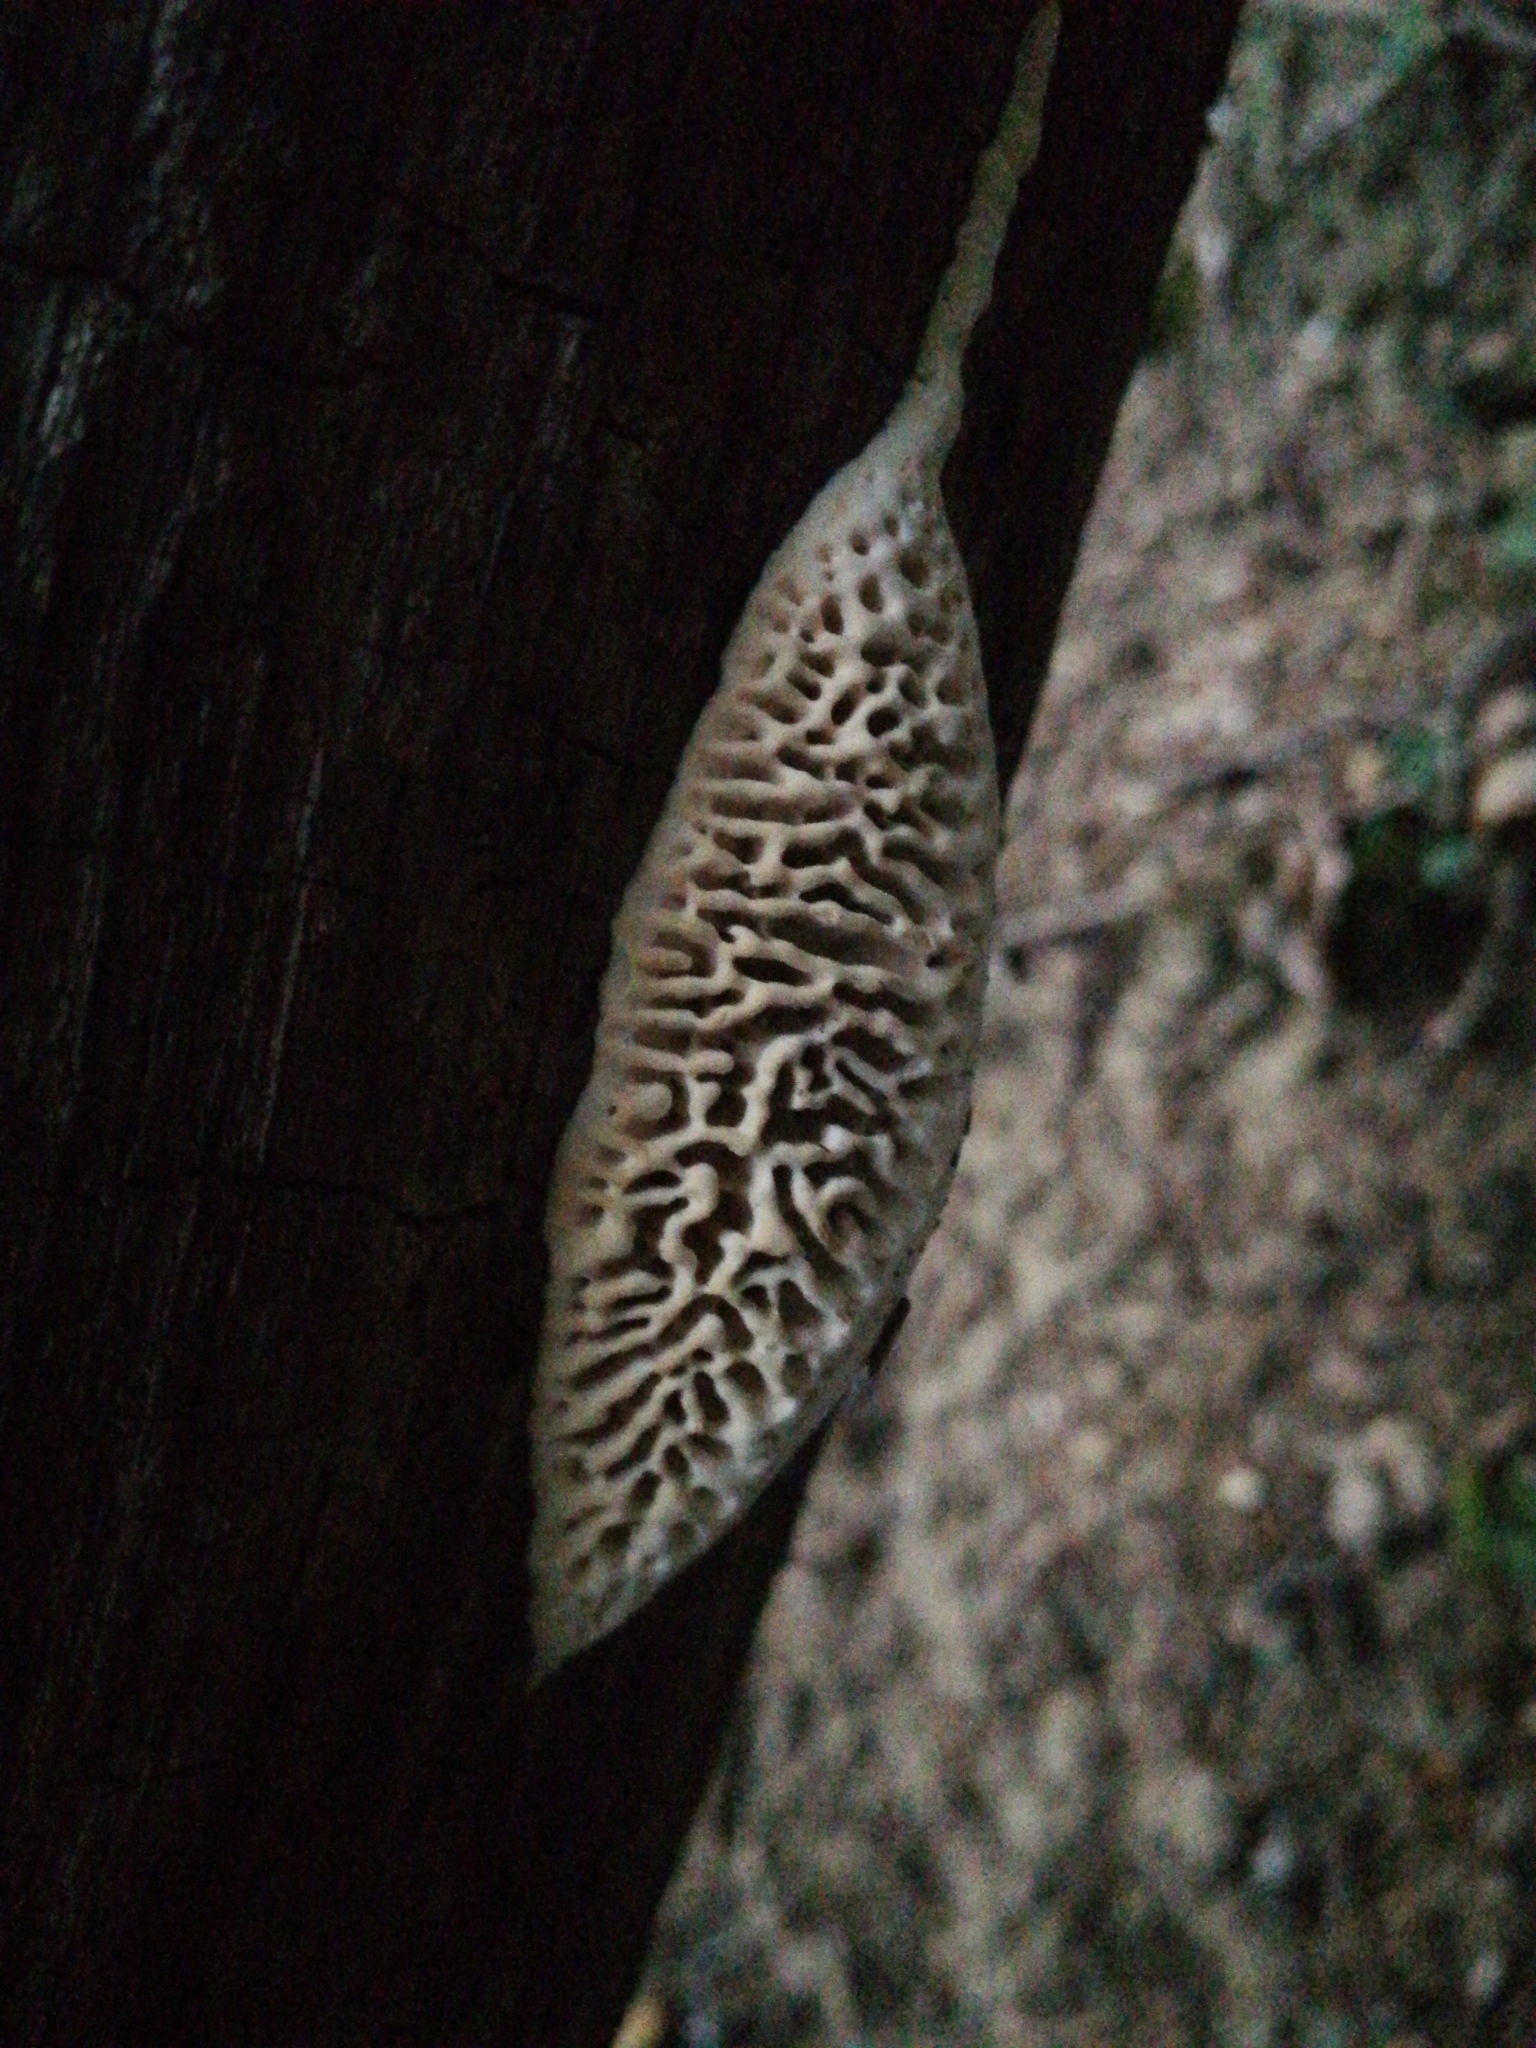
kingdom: Fungi
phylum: Basidiomycota
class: Agaricomycetes
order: Polyporales
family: Fomitopsidaceae
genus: Fomitopsis
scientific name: Fomitopsis
